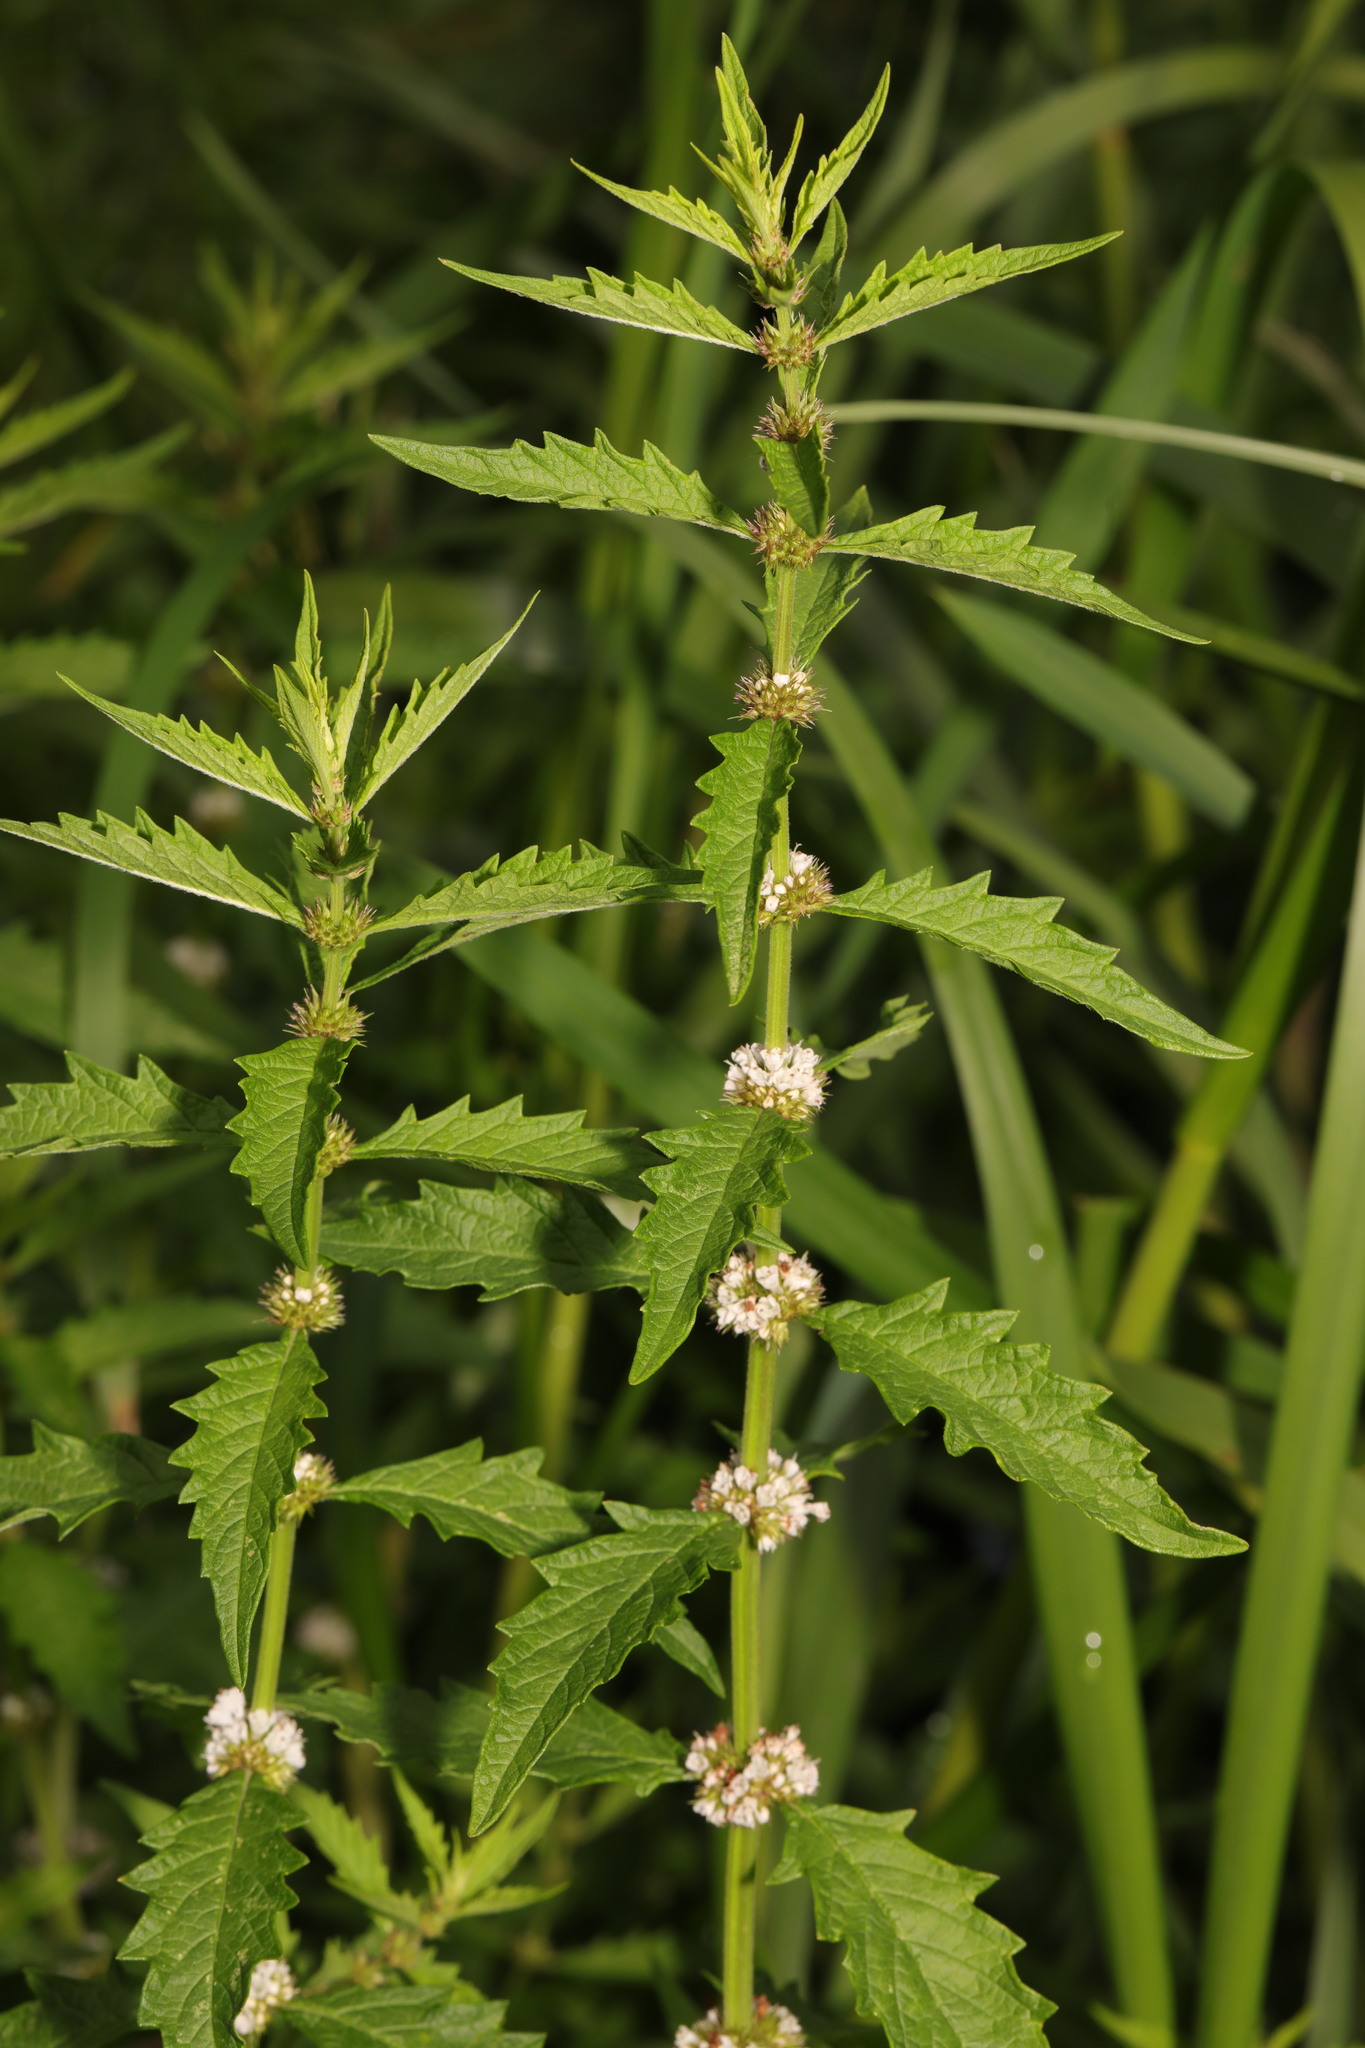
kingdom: Plantae
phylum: Tracheophyta
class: Magnoliopsida
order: Lamiales
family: Lamiaceae
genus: Lycopus
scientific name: Lycopus europaeus
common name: European bugleweed
